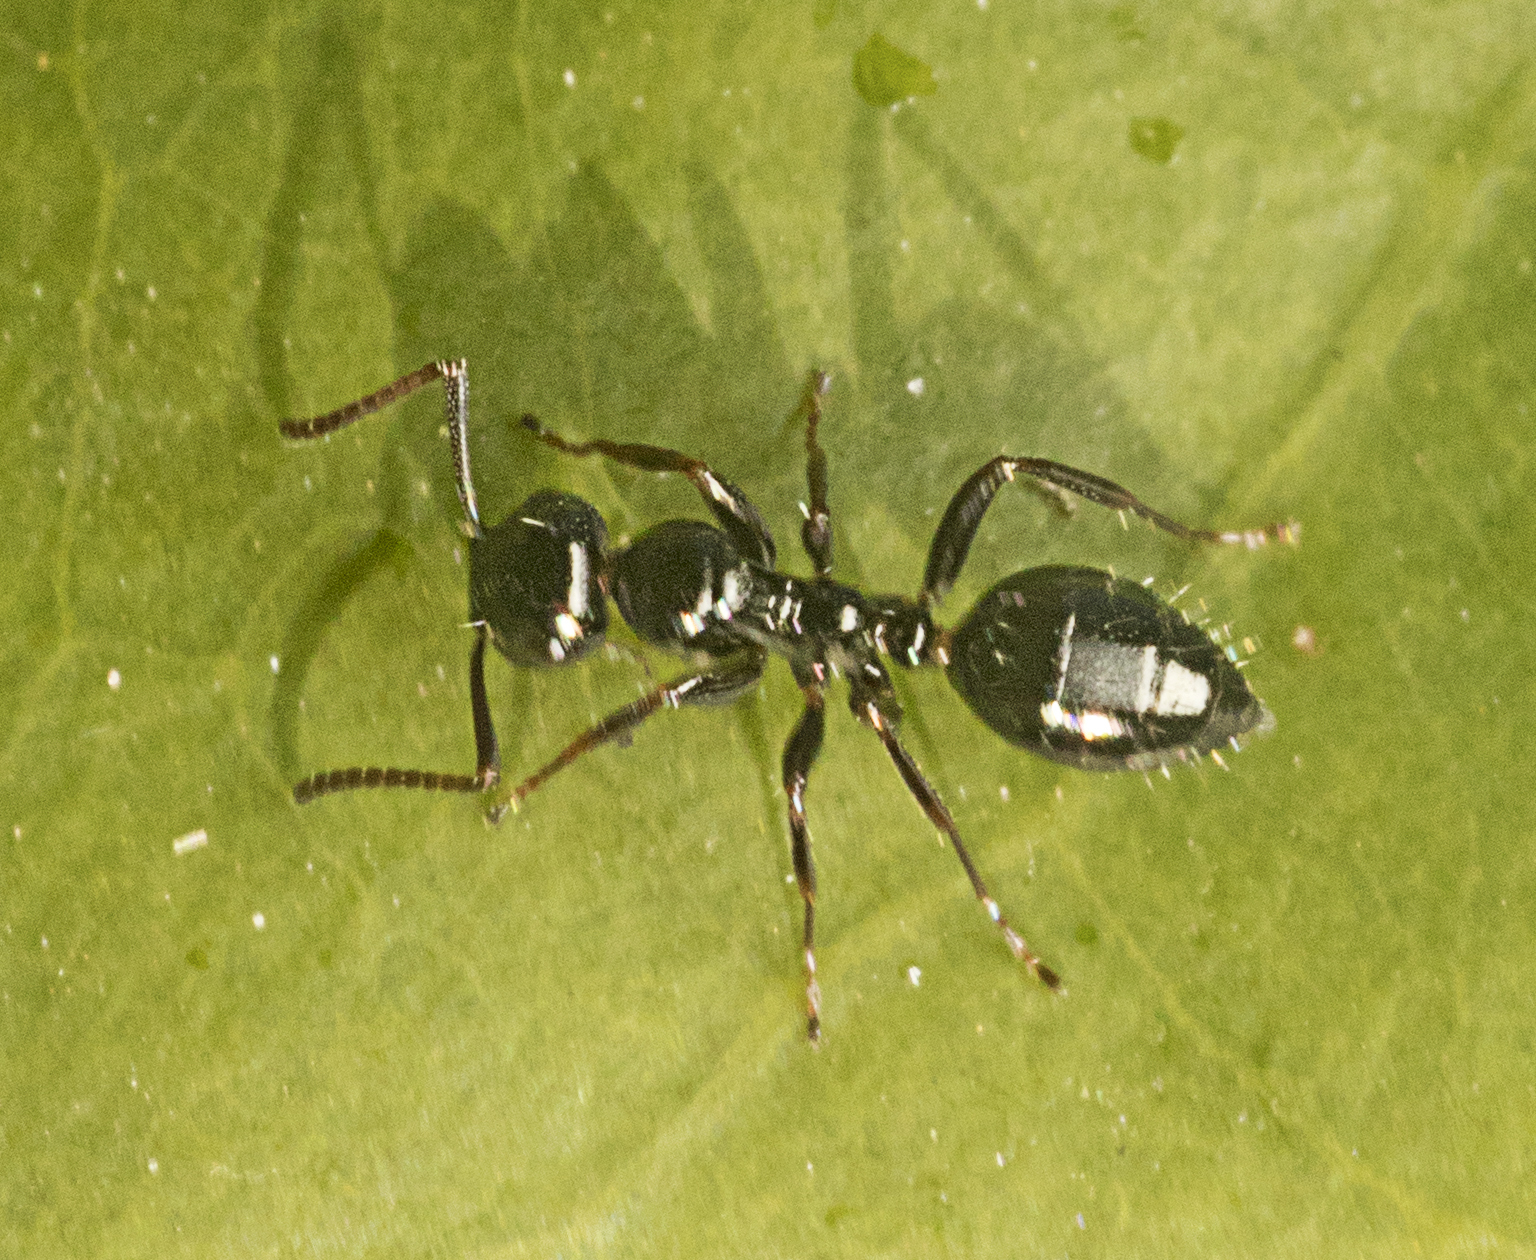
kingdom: Animalia
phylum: Arthropoda
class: Insecta
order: Hymenoptera
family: Formicidae
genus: Colobopsis
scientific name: Colobopsis gasseri
